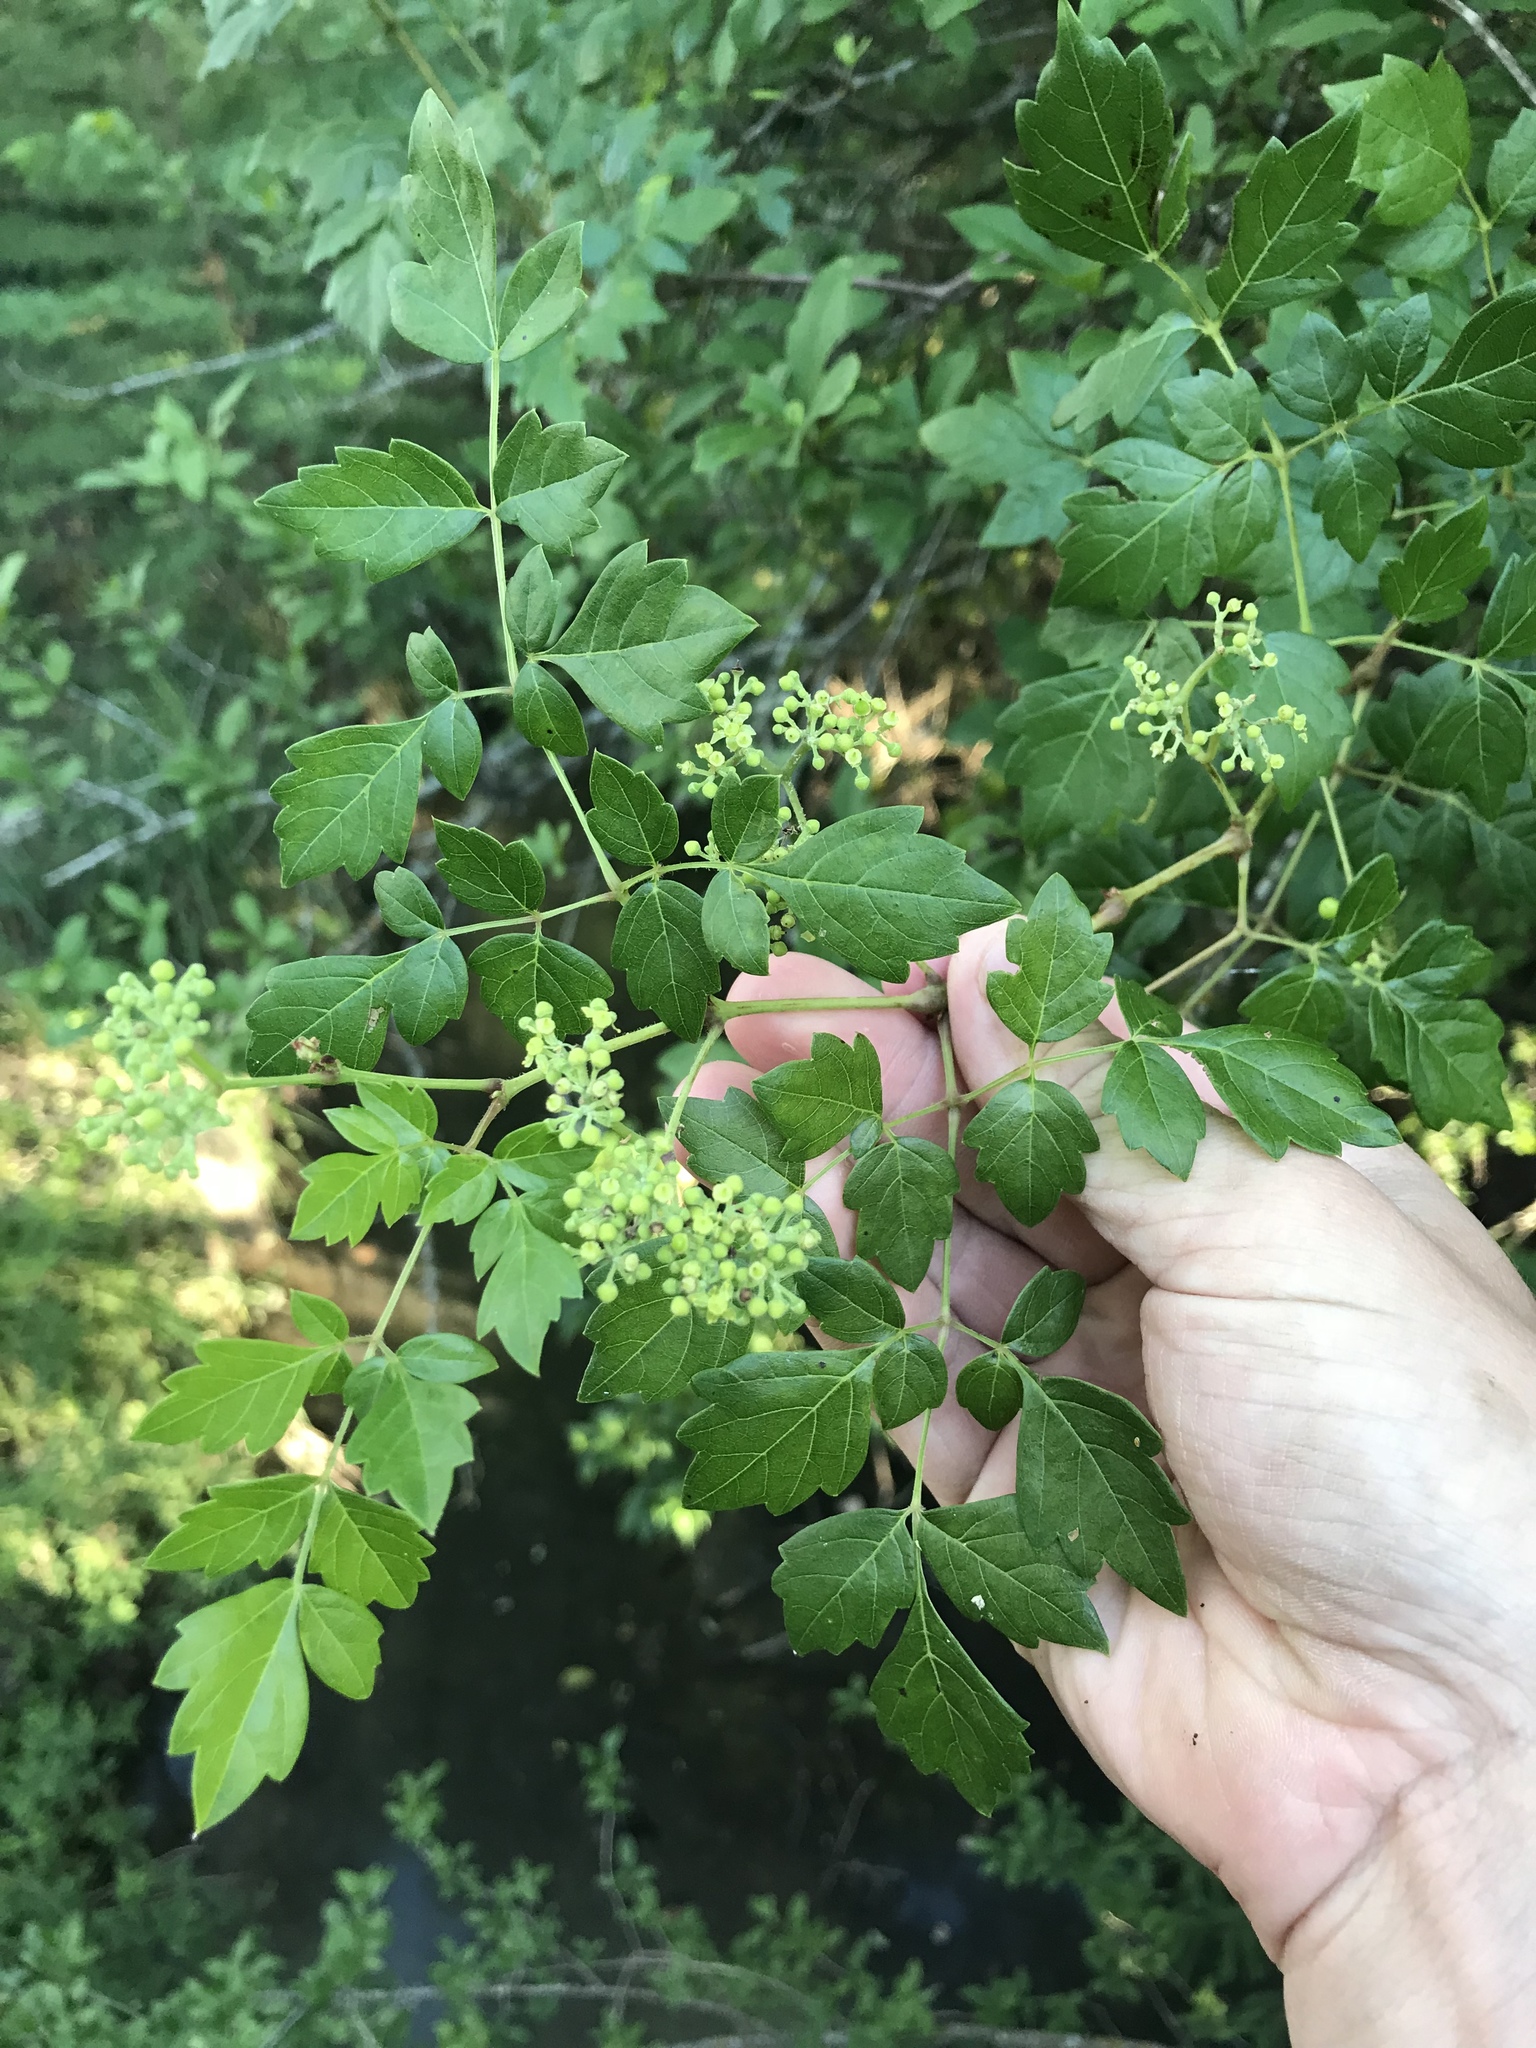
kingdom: Plantae
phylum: Tracheophyta
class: Magnoliopsida
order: Vitales
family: Vitaceae
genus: Nekemias
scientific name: Nekemias arborea
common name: Peppervine
